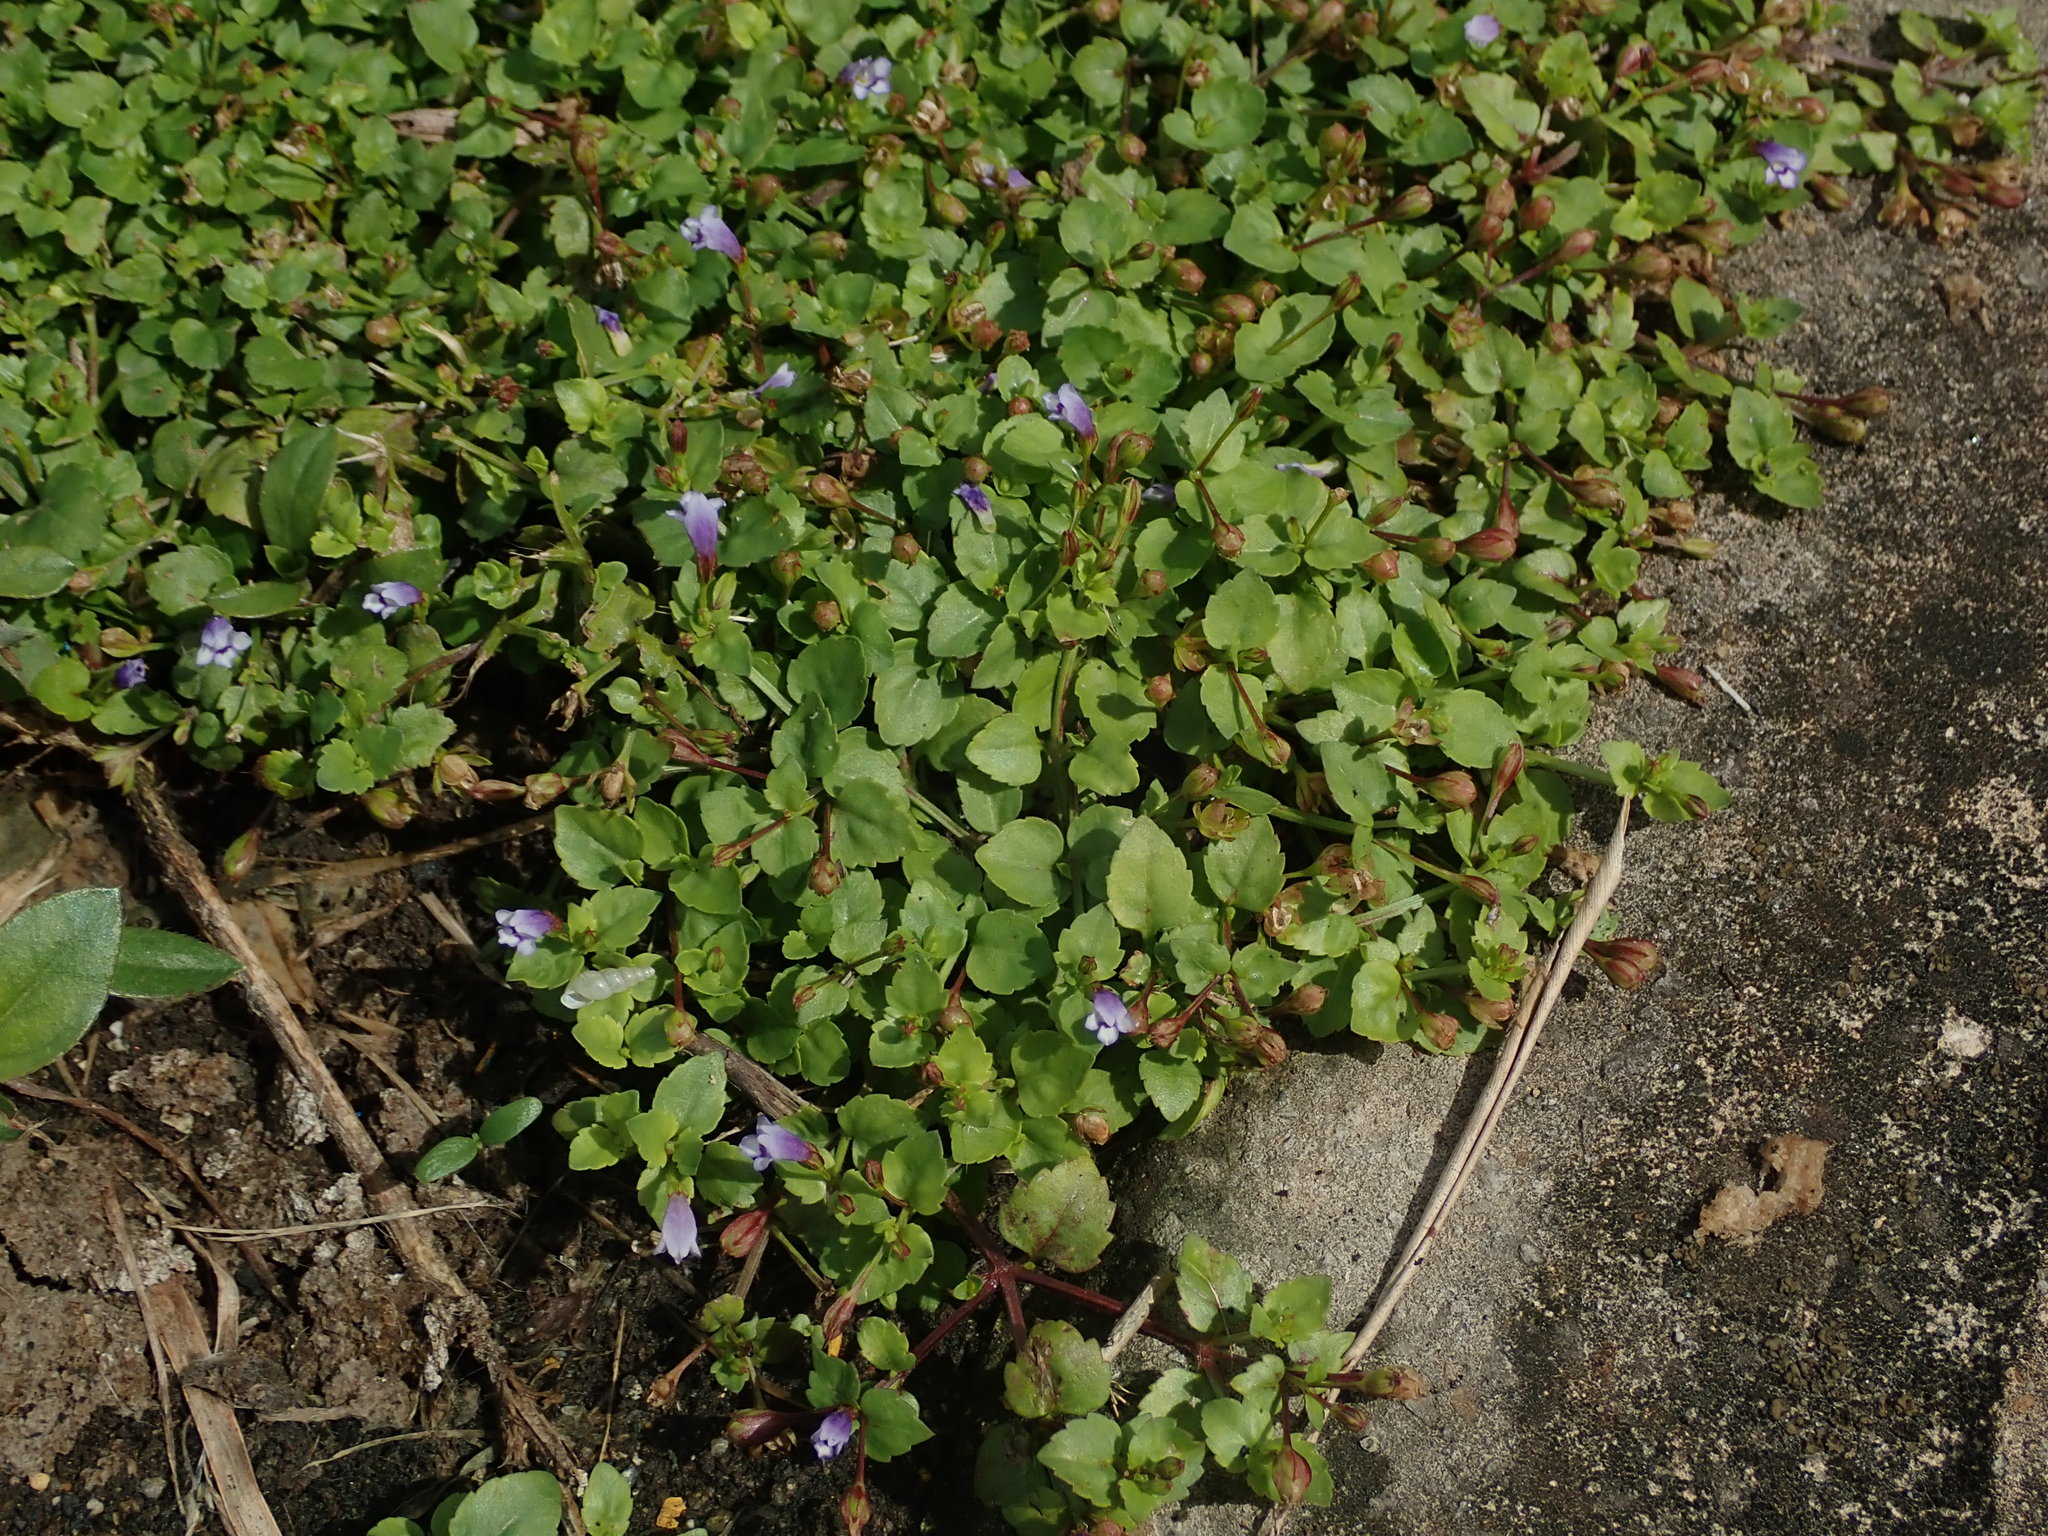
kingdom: Plantae
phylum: Tracheophyta
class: Magnoliopsida
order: Lamiales
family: Linderniaceae
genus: Torenia
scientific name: Torenia crustacea
